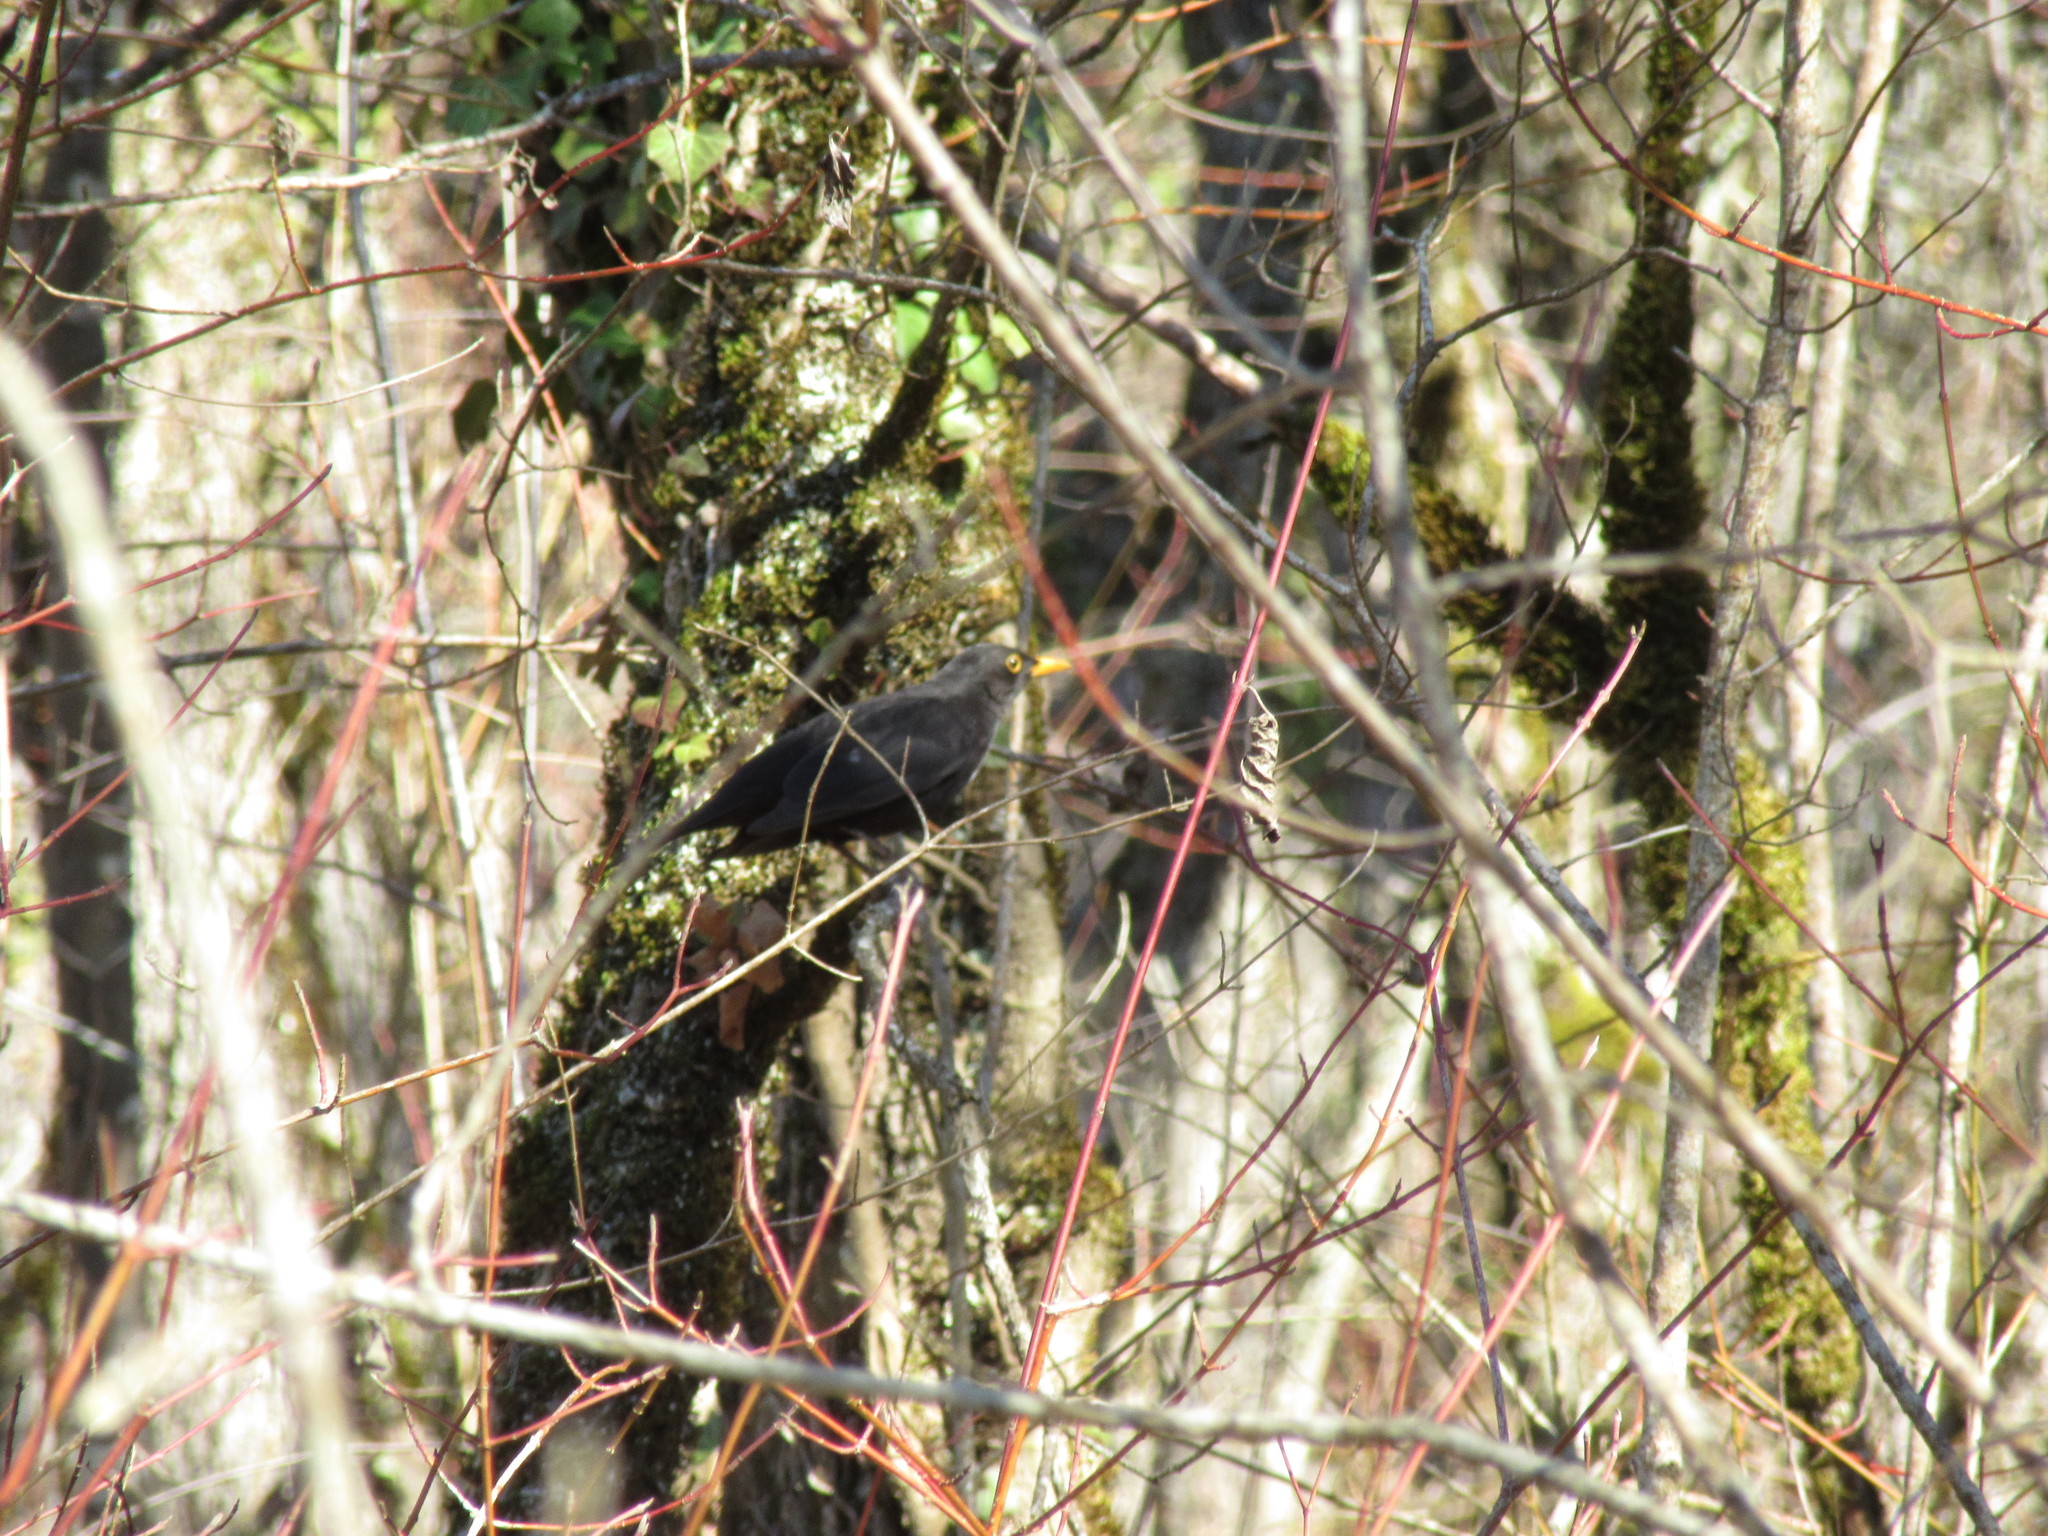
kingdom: Animalia
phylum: Chordata
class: Aves
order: Passeriformes
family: Turdidae
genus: Turdus
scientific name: Turdus merula
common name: Common blackbird
